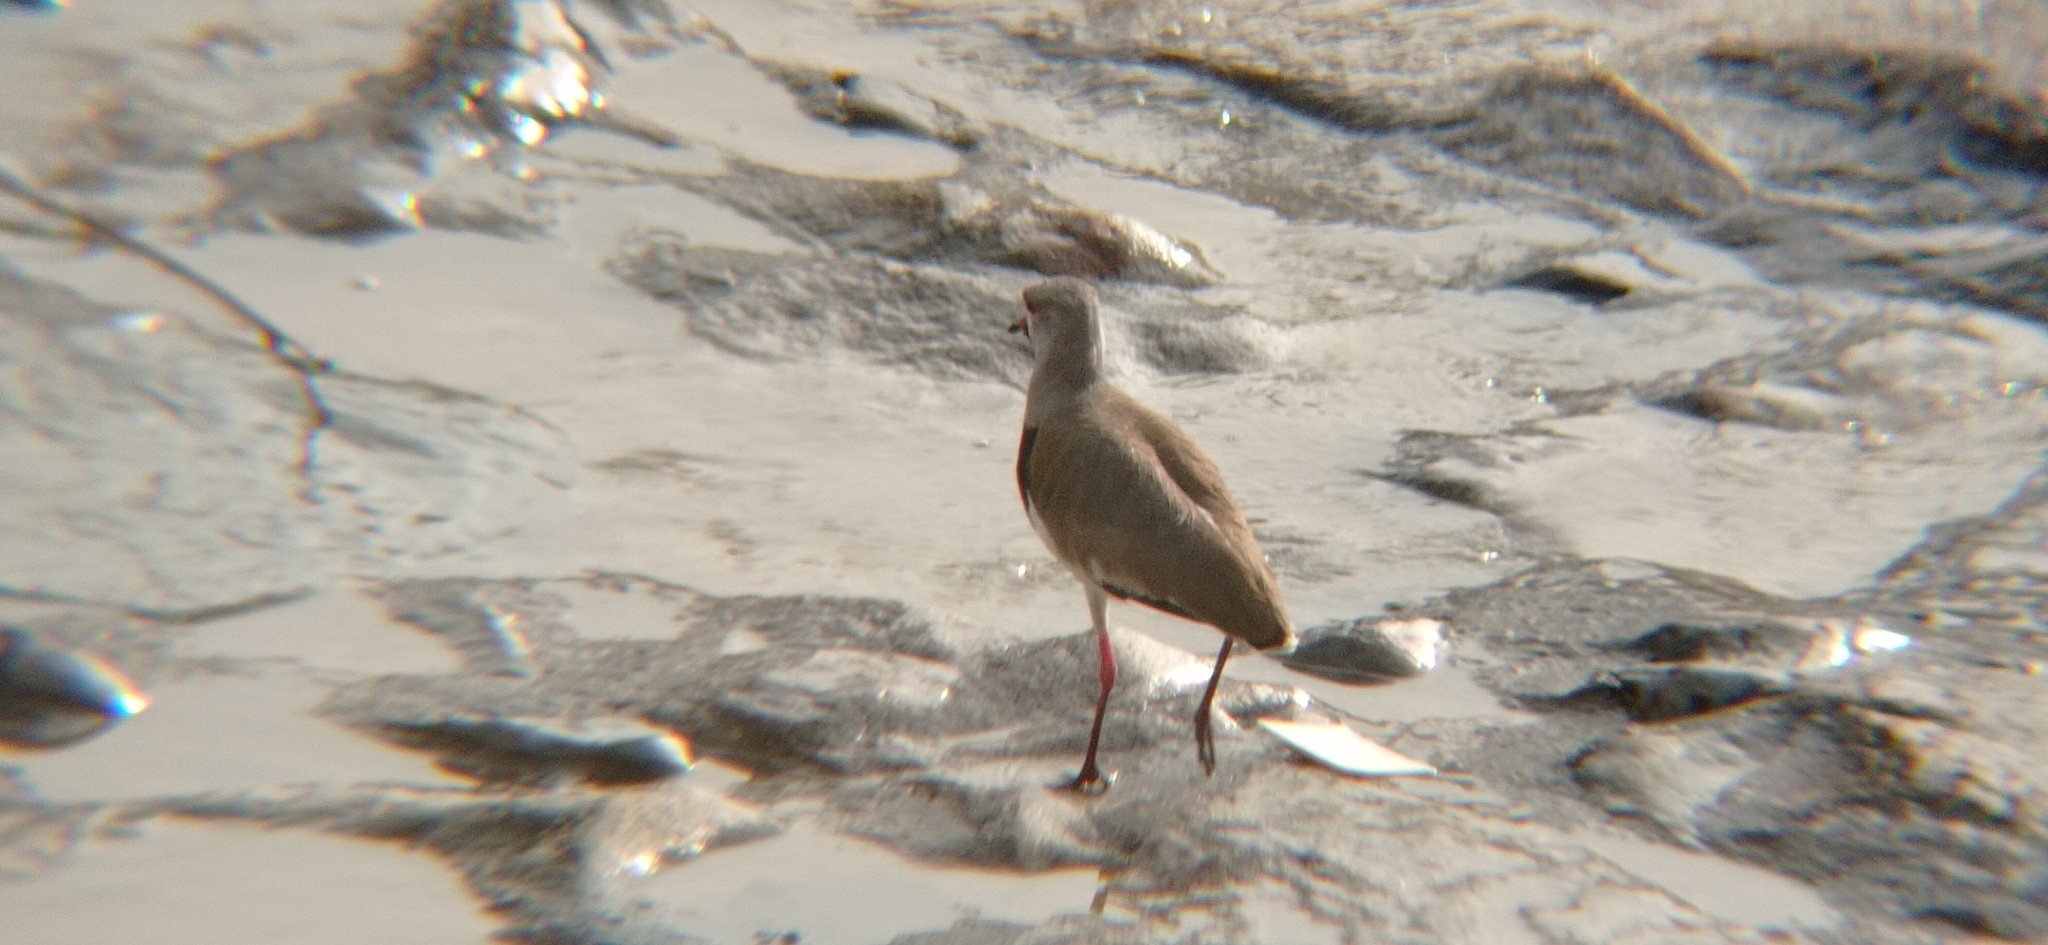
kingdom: Animalia
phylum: Chordata
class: Aves
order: Charadriiformes
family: Charadriidae
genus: Vanellus
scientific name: Vanellus chilensis
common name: Southern lapwing
